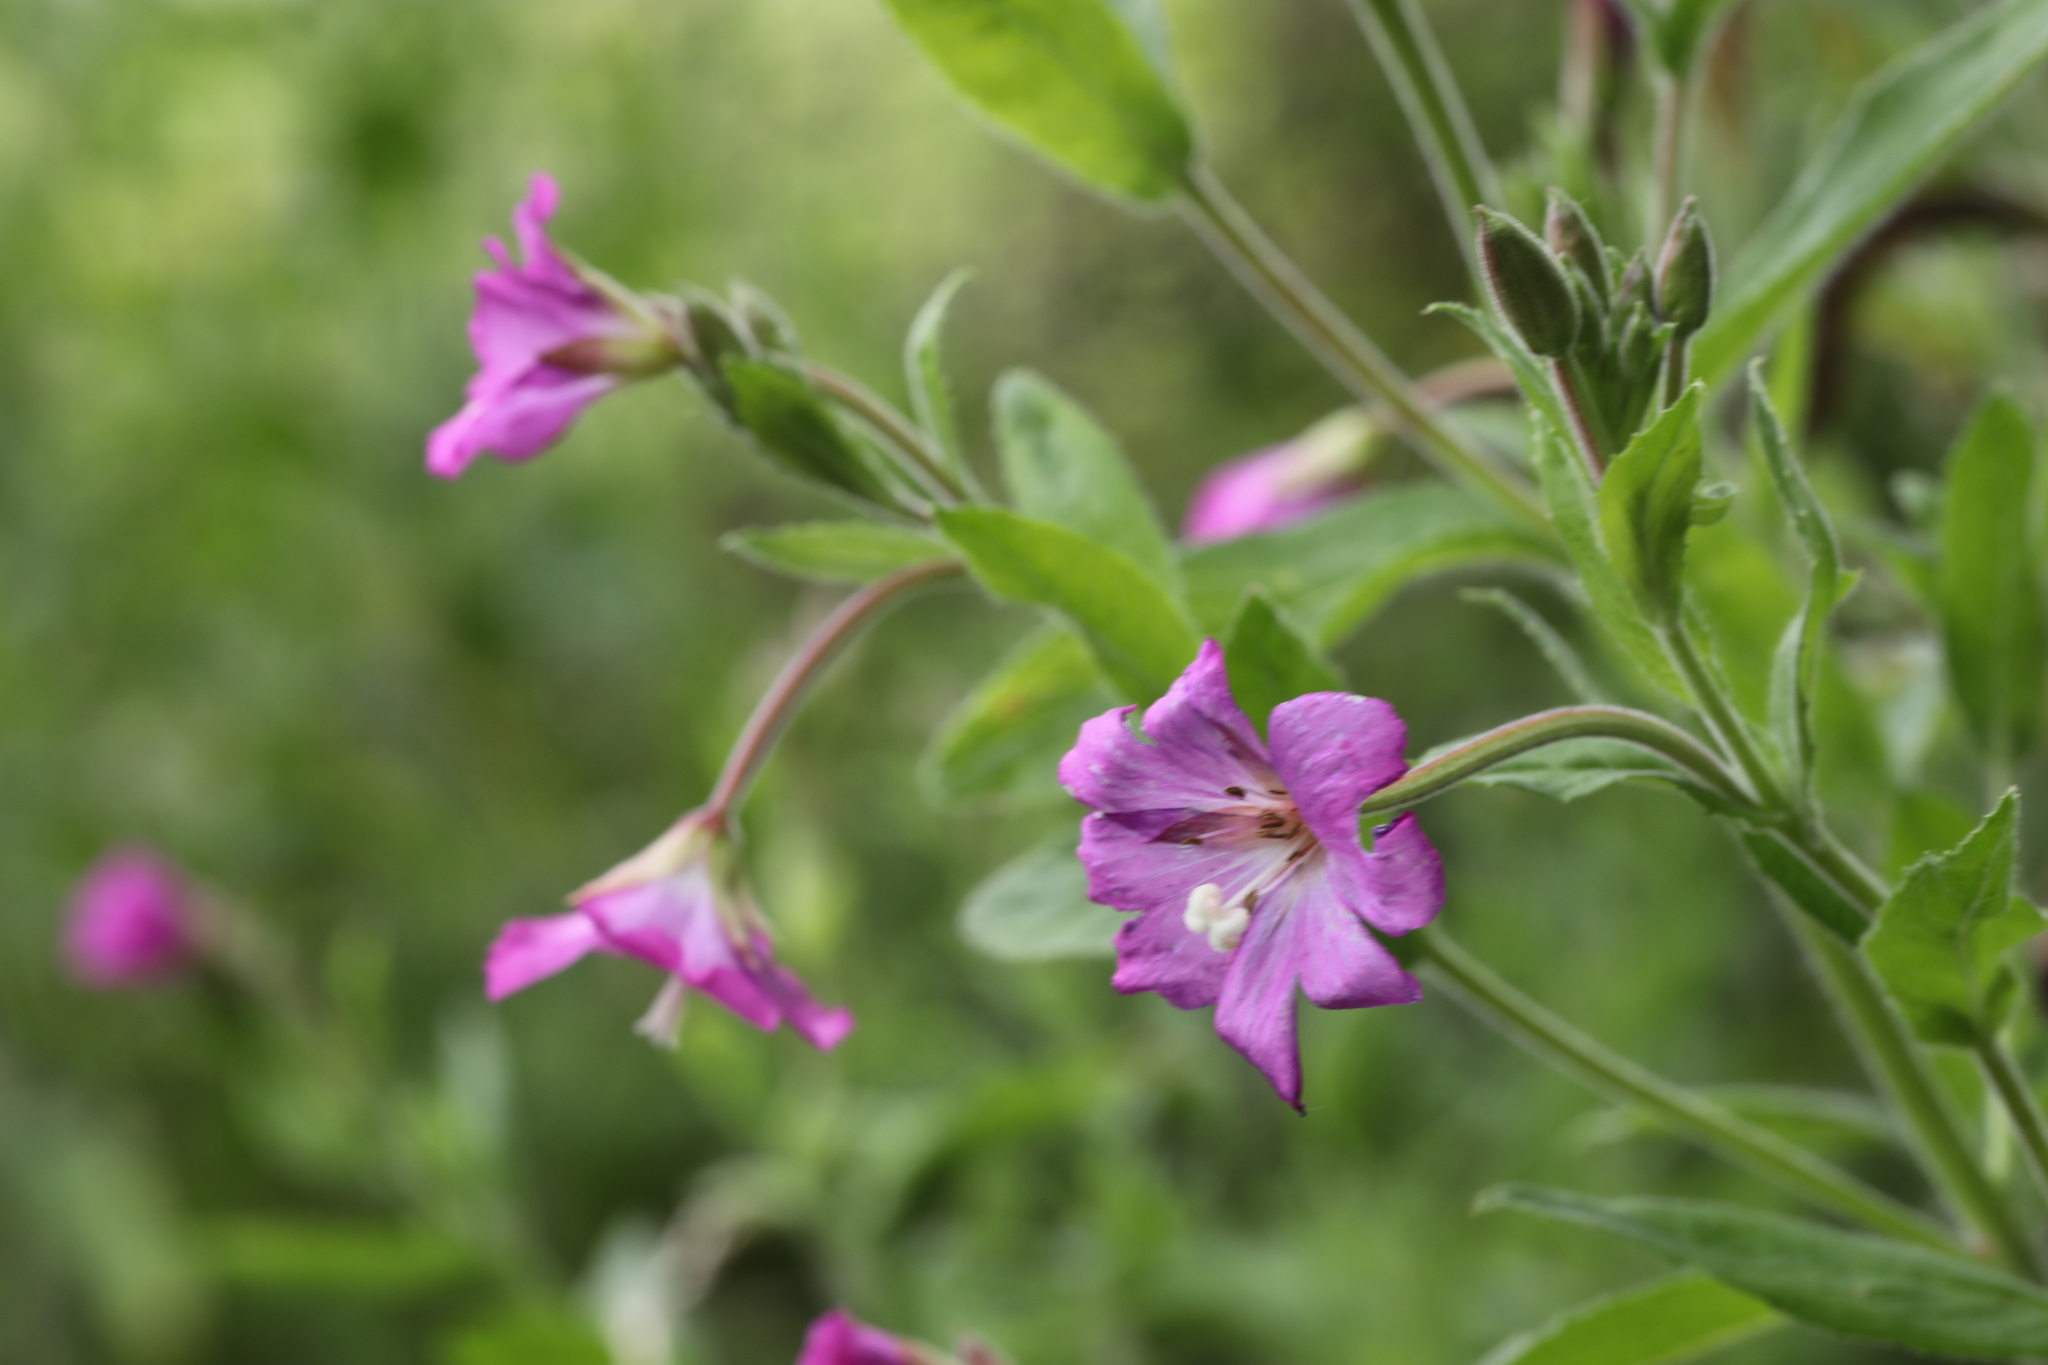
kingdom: Plantae
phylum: Tracheophyta
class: Magnoliopsida
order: Myrtales
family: Onagraceae
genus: Epilobium
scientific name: Epilobium hirsutum
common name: Great willowherb
